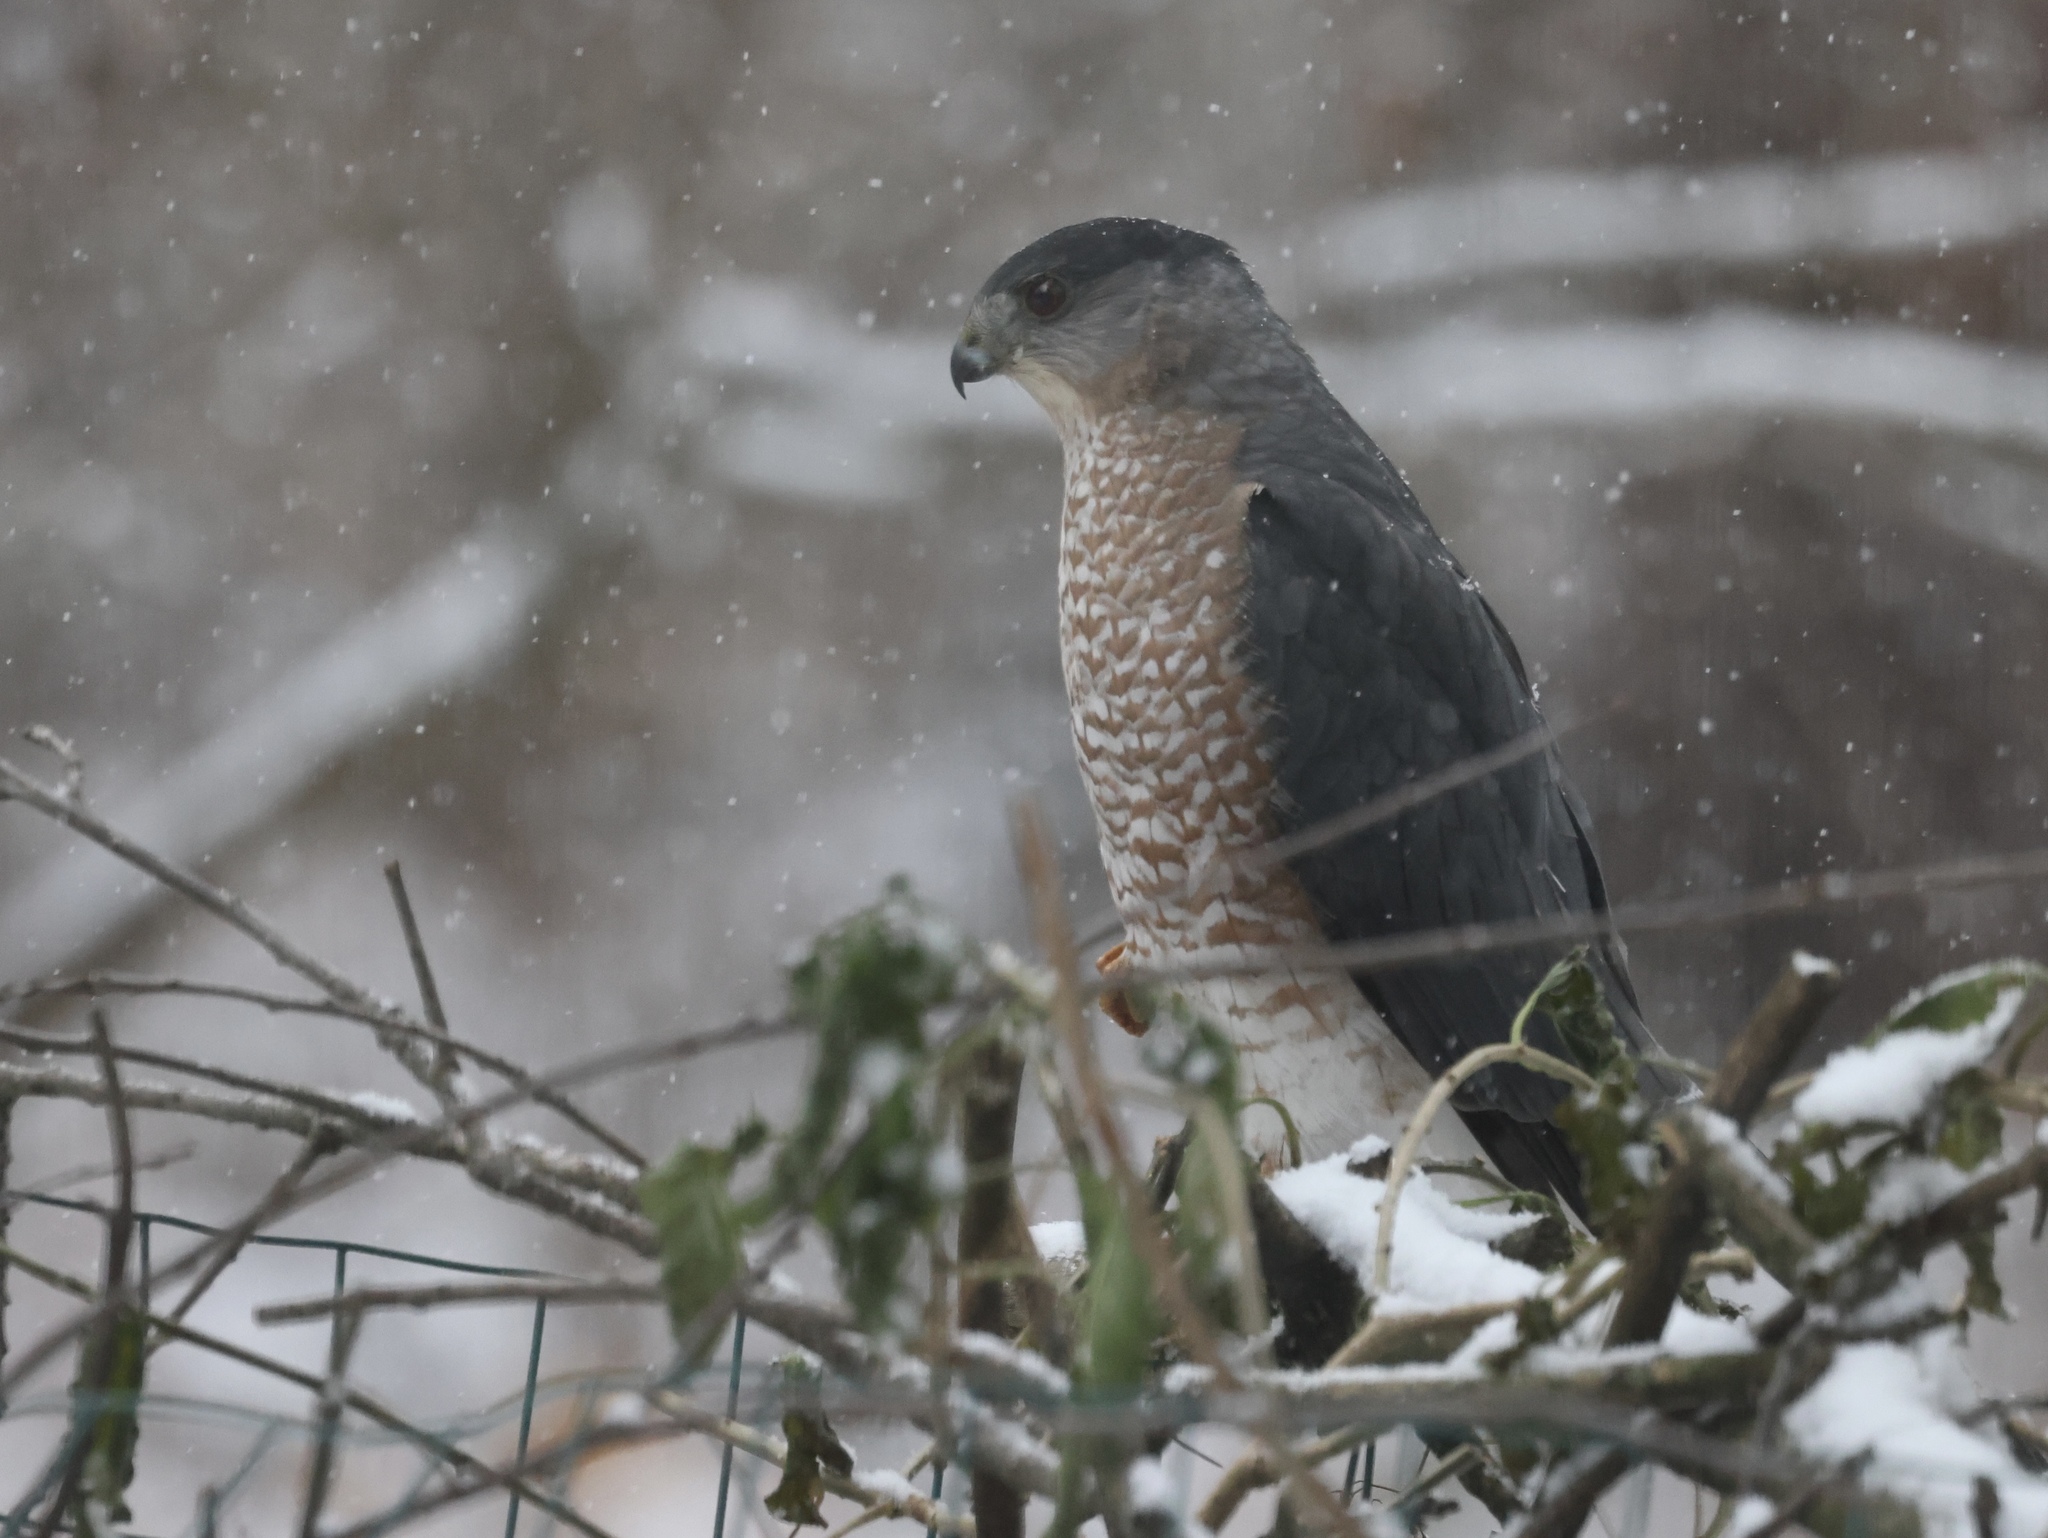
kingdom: Animalia
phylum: Chordata
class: Aves
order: Accipitriformes
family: Accipitridae
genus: Accipiter
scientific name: Accipiter cooperii
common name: Cooper's hawk
